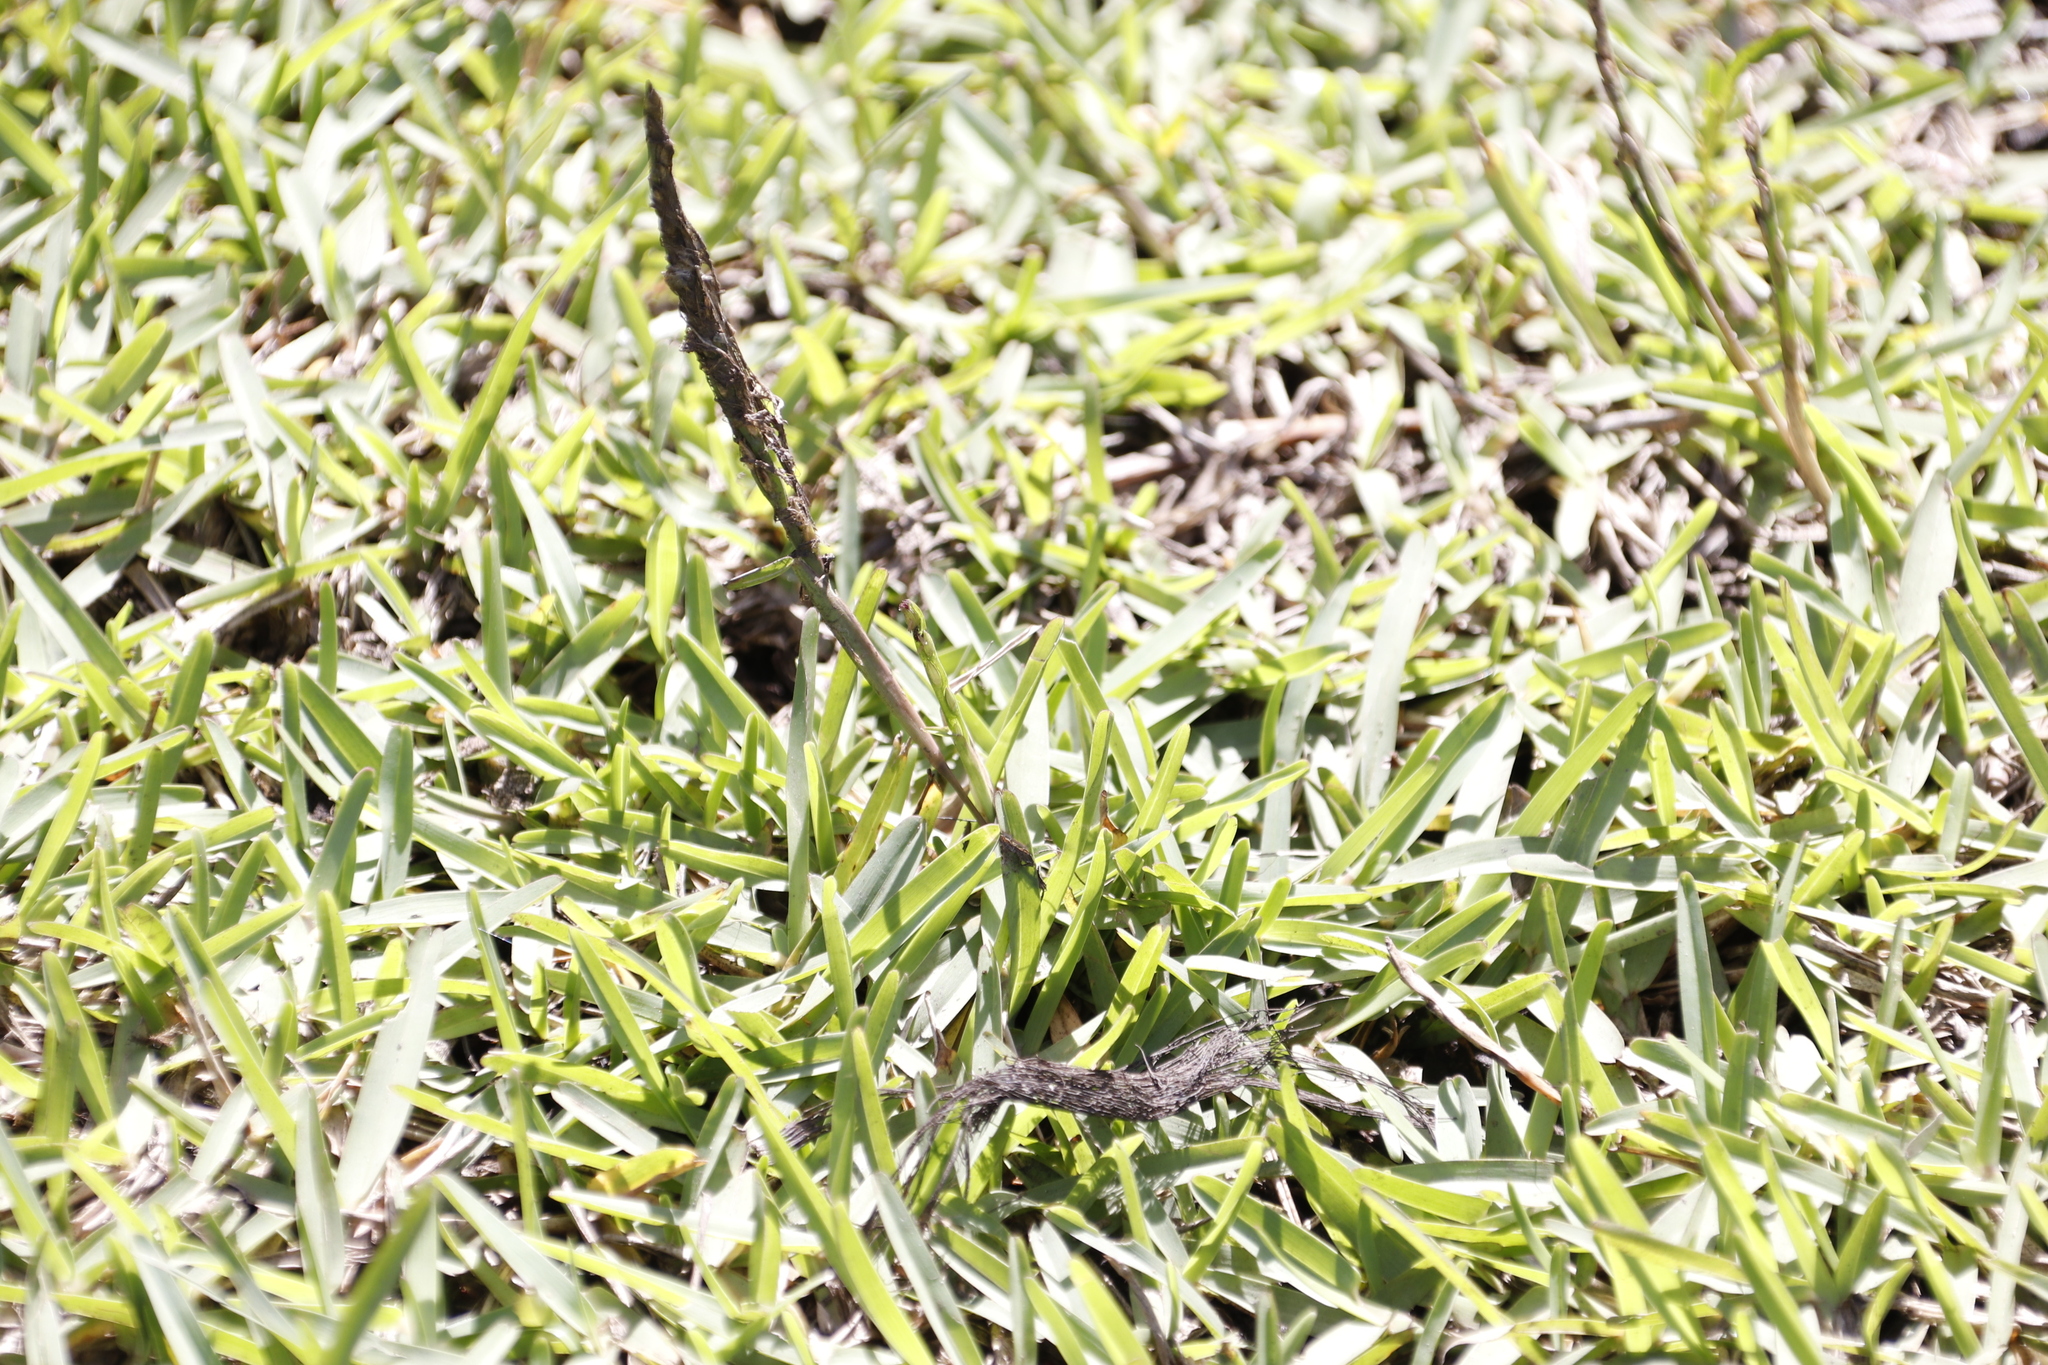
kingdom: Plantae
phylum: Tracheophyta
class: Liliopsida
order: Poales
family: Poaceae
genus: Stenotaphrum
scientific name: Stenotaphrum secundatum
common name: St. augustine grass
